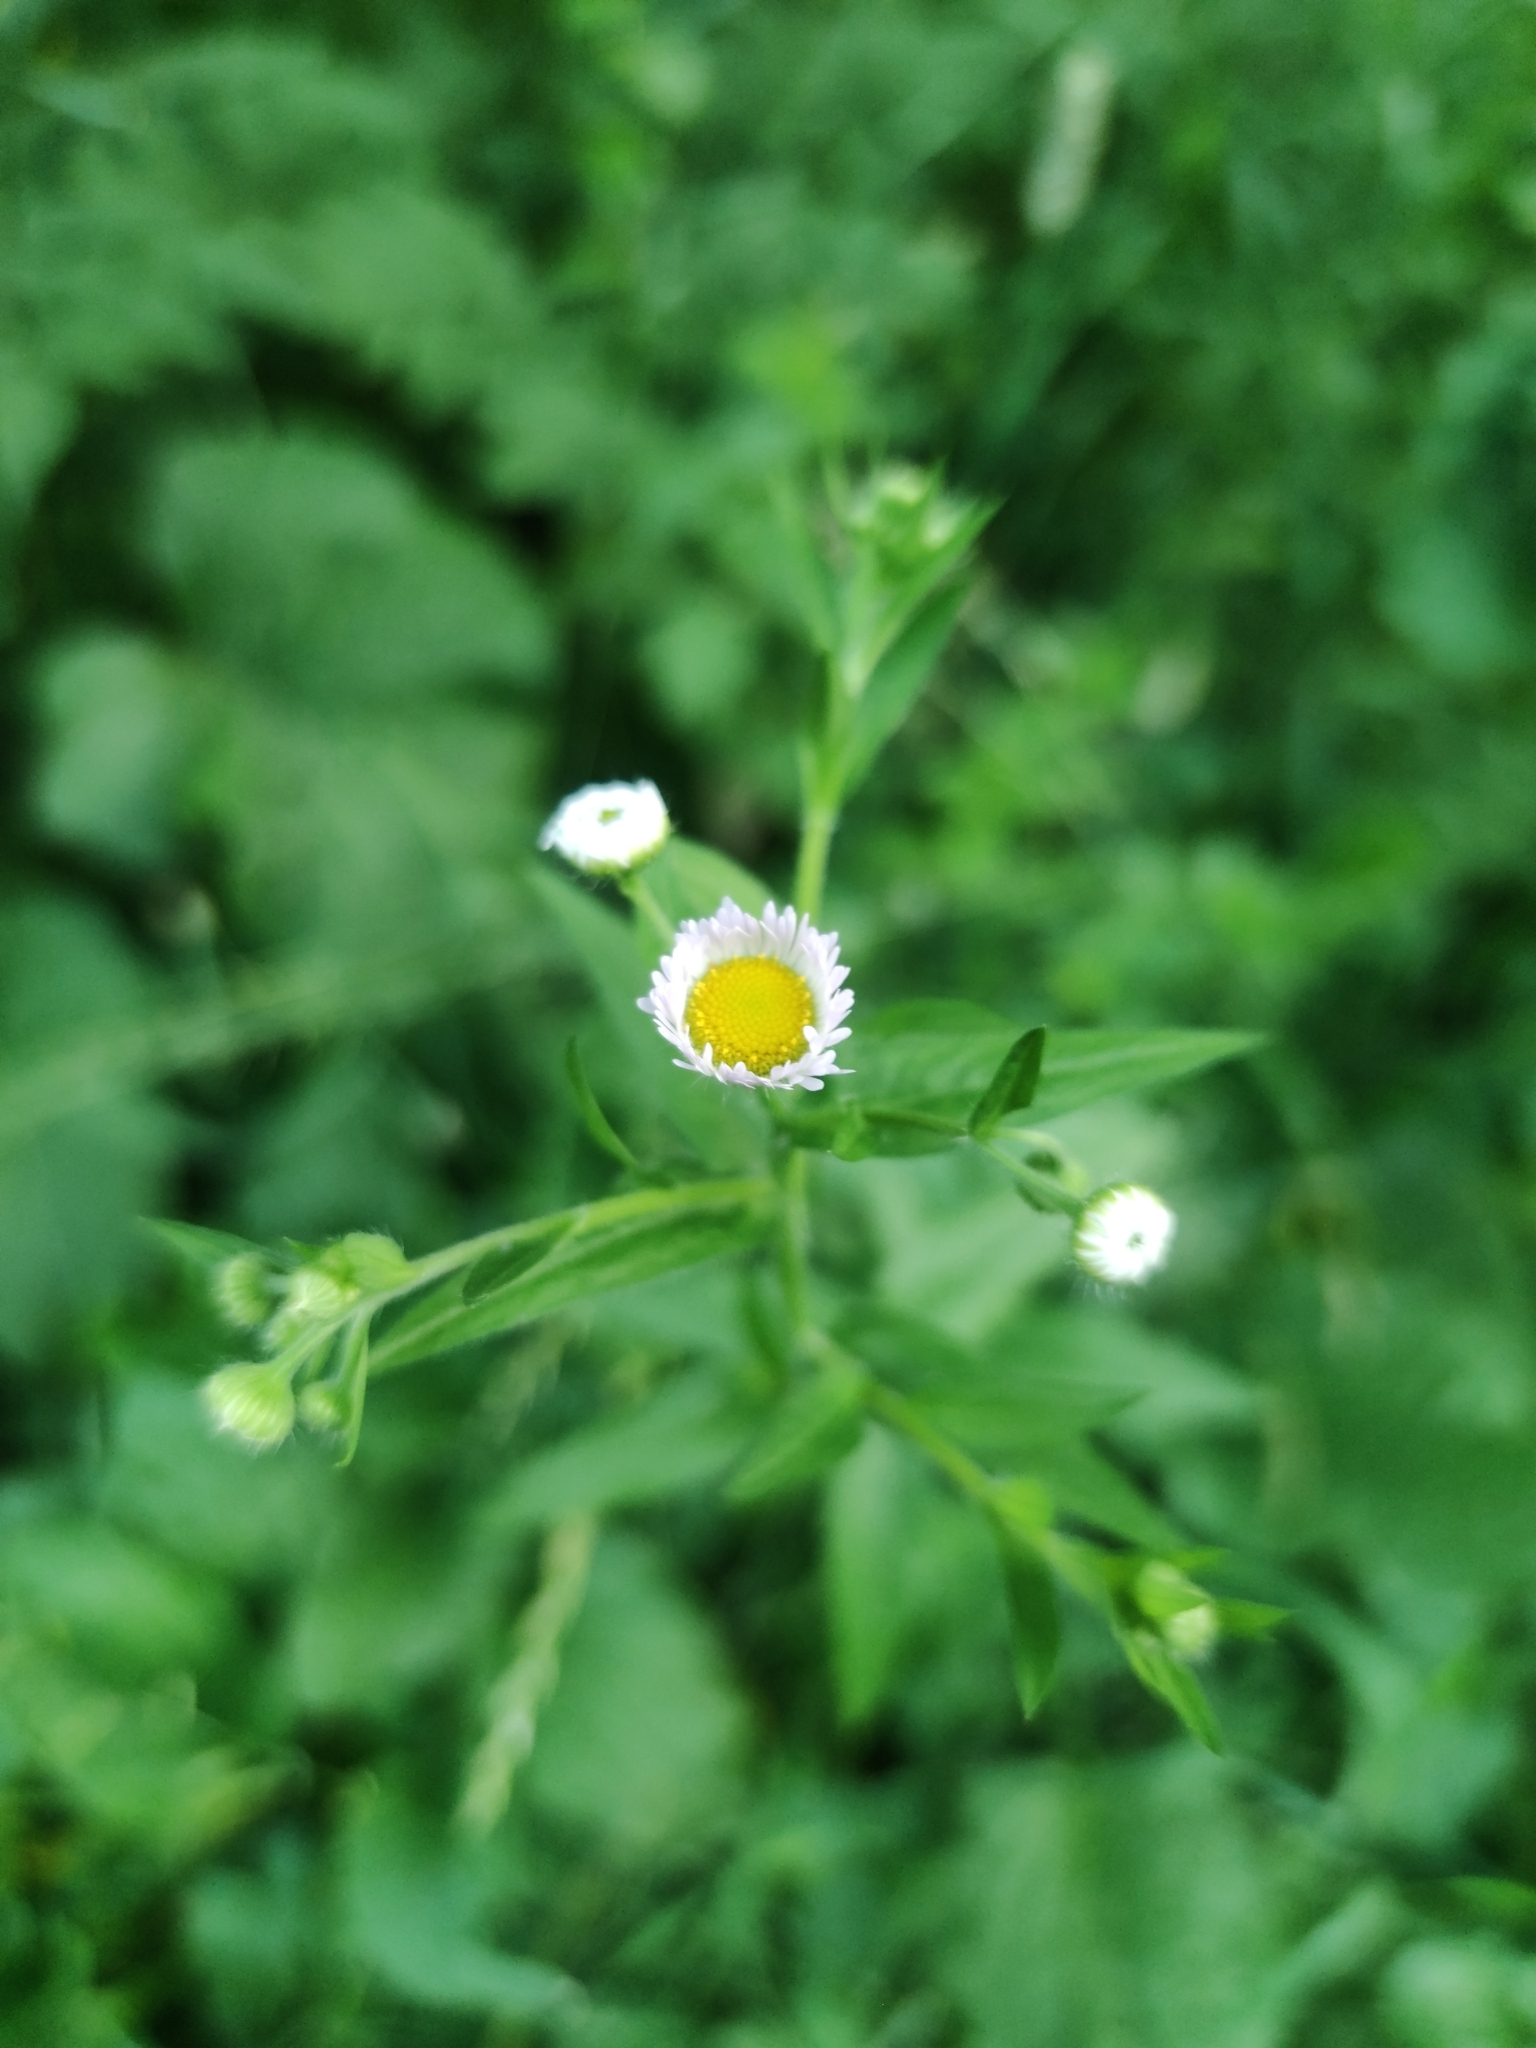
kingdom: Plantae
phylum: Tracheophyta
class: Magnoliopsida
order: Asterales
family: Asteraceae
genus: Erigeron
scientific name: Erigeron annuus
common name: Tall fleabane
